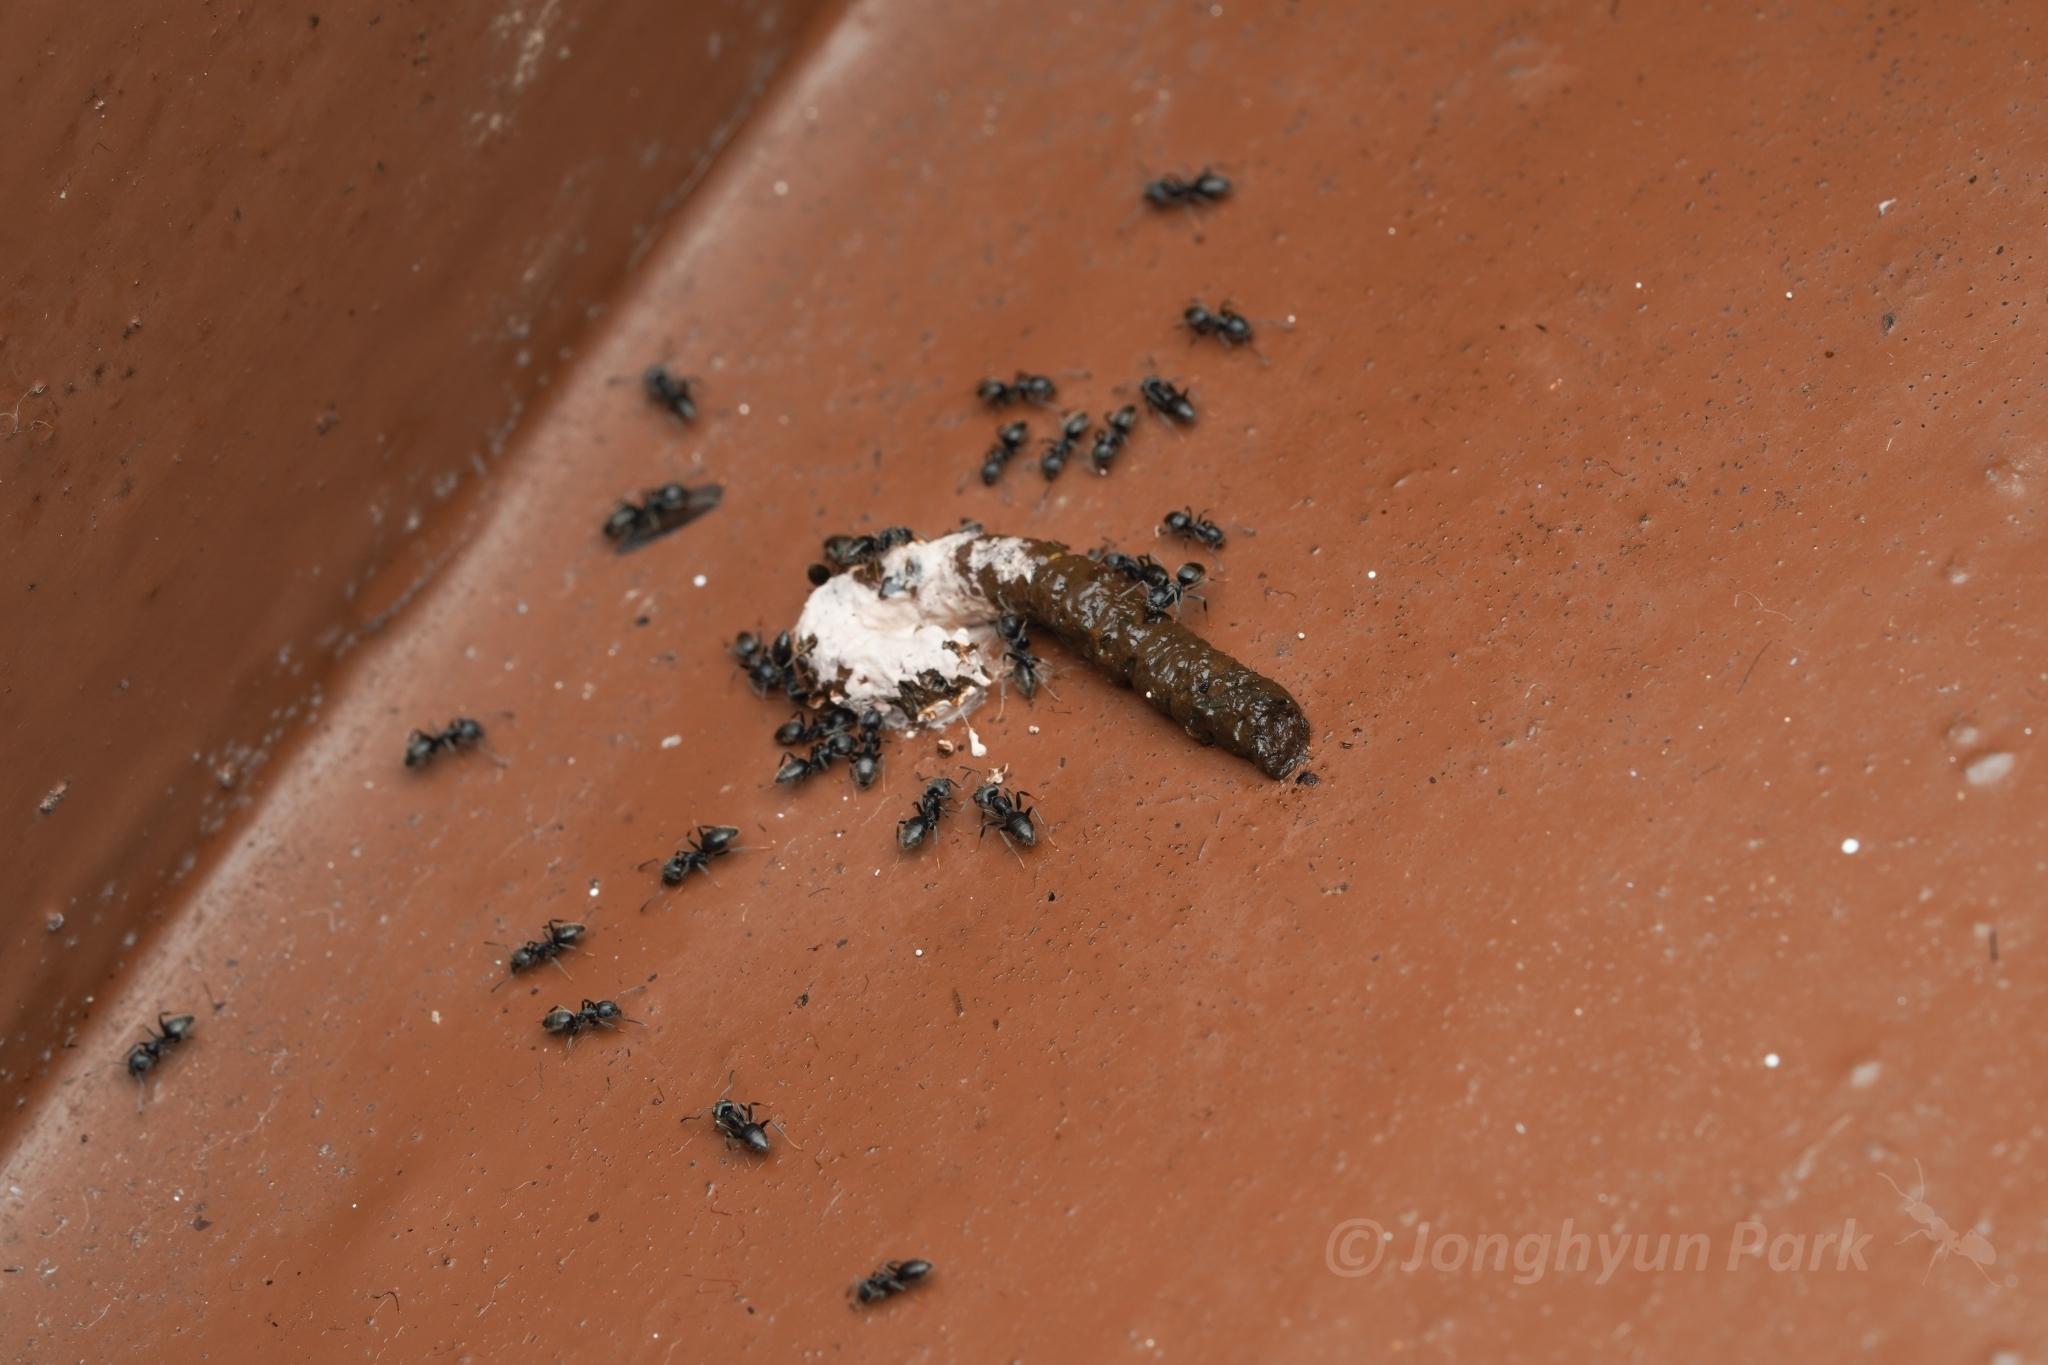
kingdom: Animalia
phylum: Arthropoda
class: Insecta
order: Hymenoptera
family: Formicidae
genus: Technomyrmex
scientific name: Technomyrmex modiglianii
